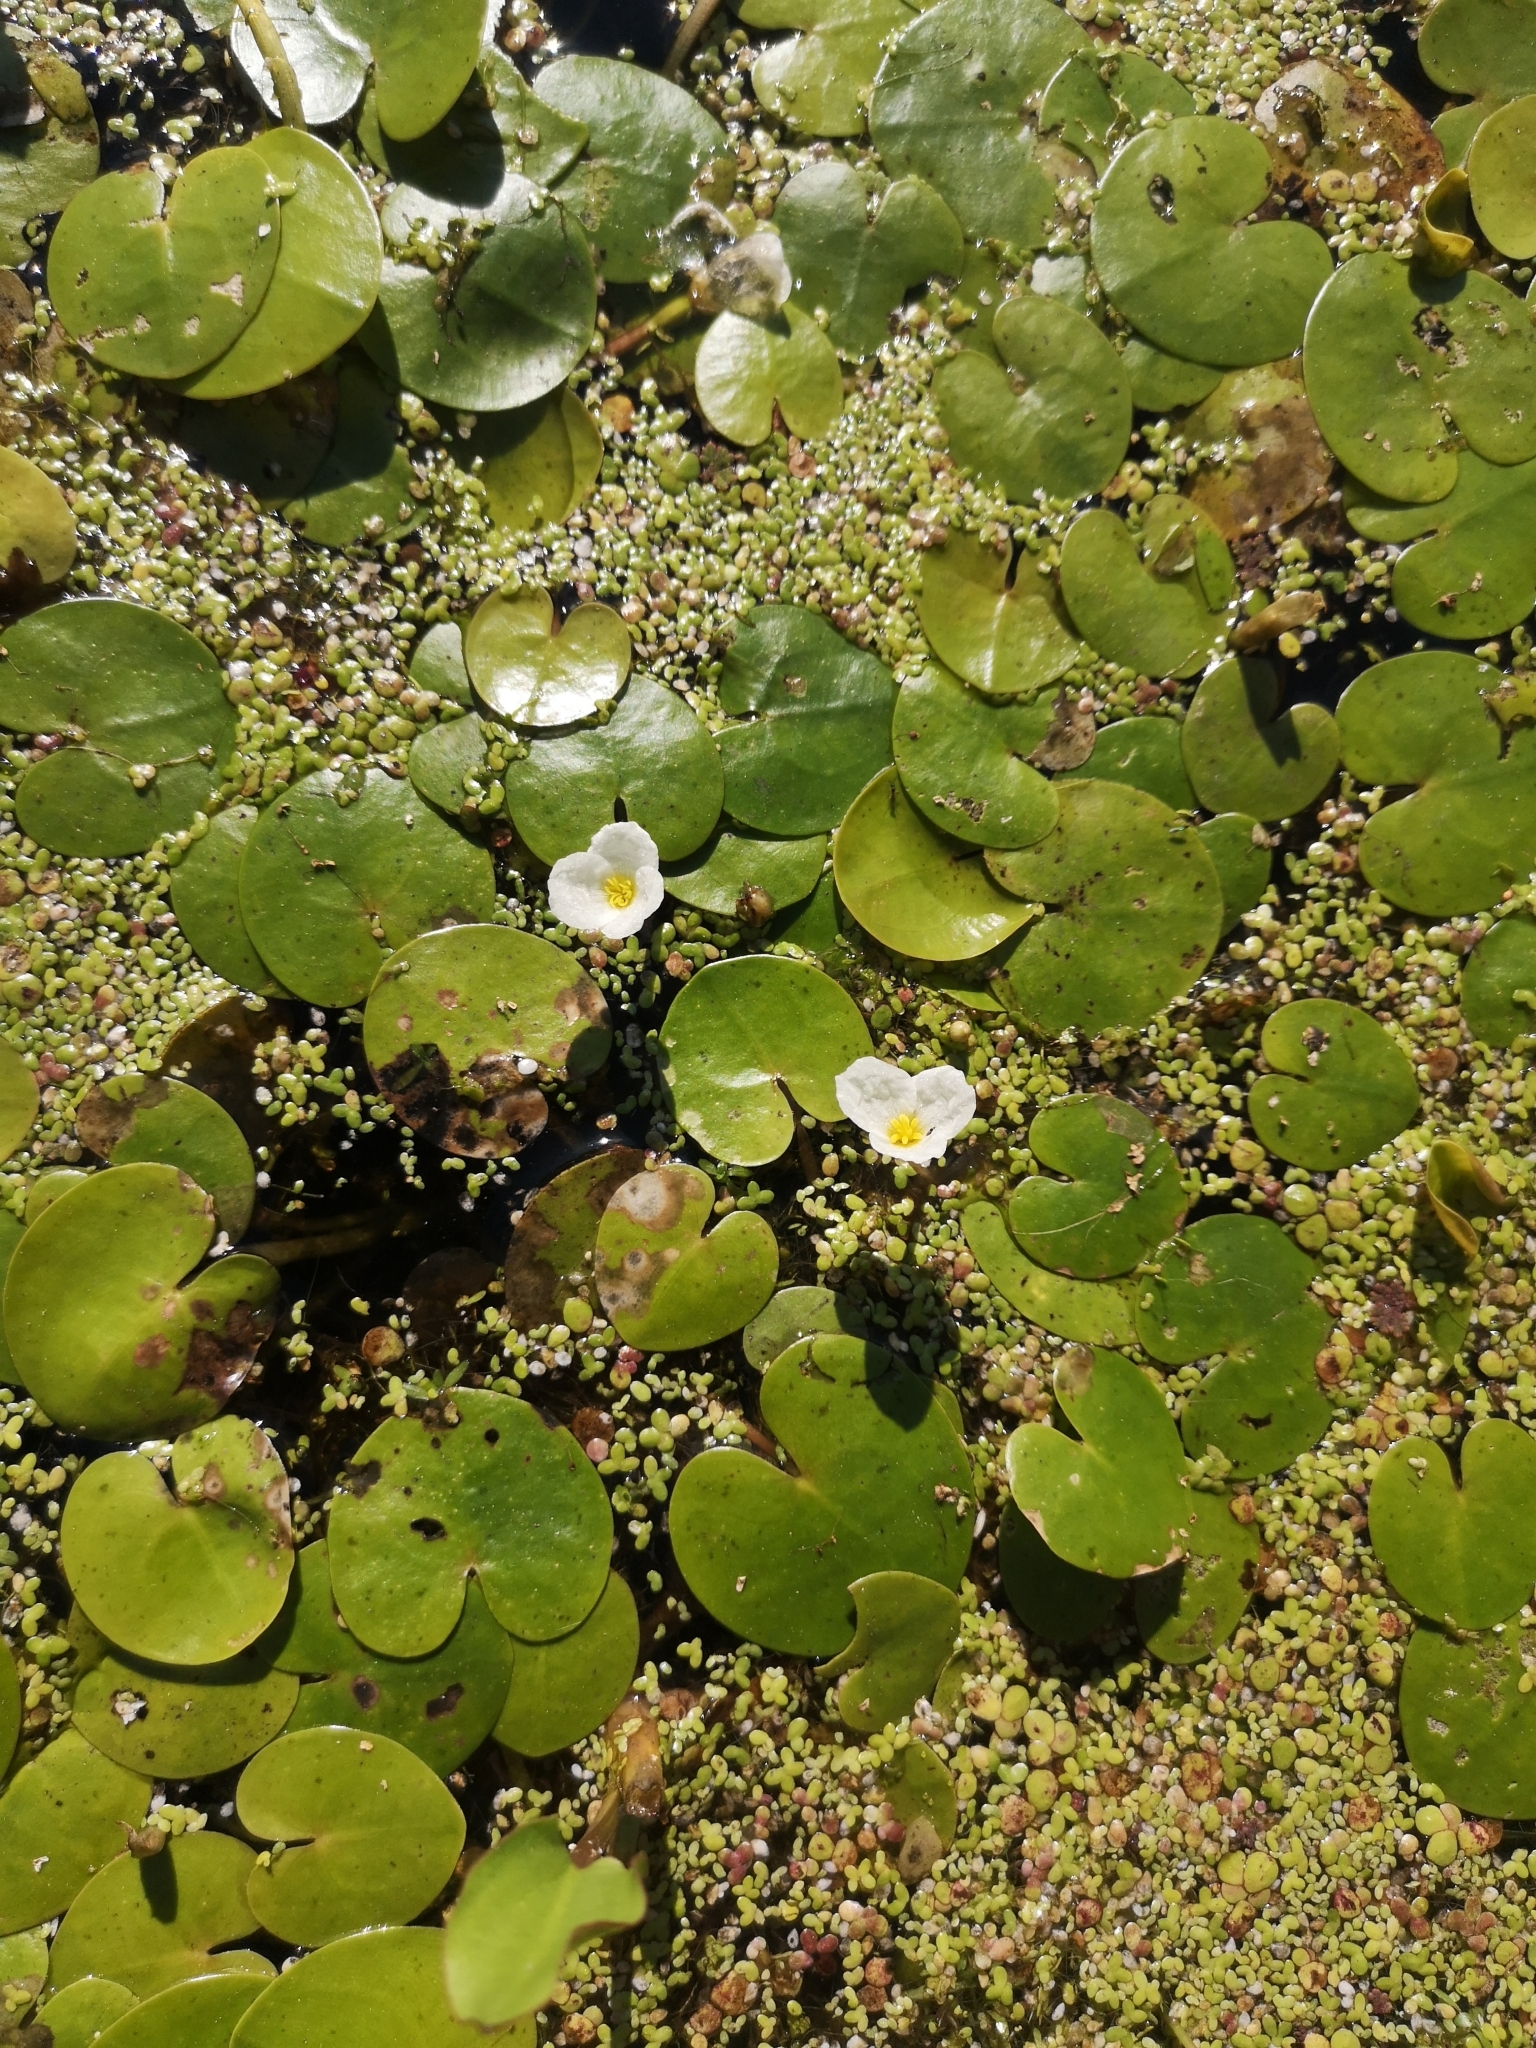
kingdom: Plantae
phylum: Tracheophyta
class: Liliopsida
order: Alismatales
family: Hydrocharitaceae
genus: Hydrocharis
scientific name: Hydrocharis morsus-ranae
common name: Frogbit
